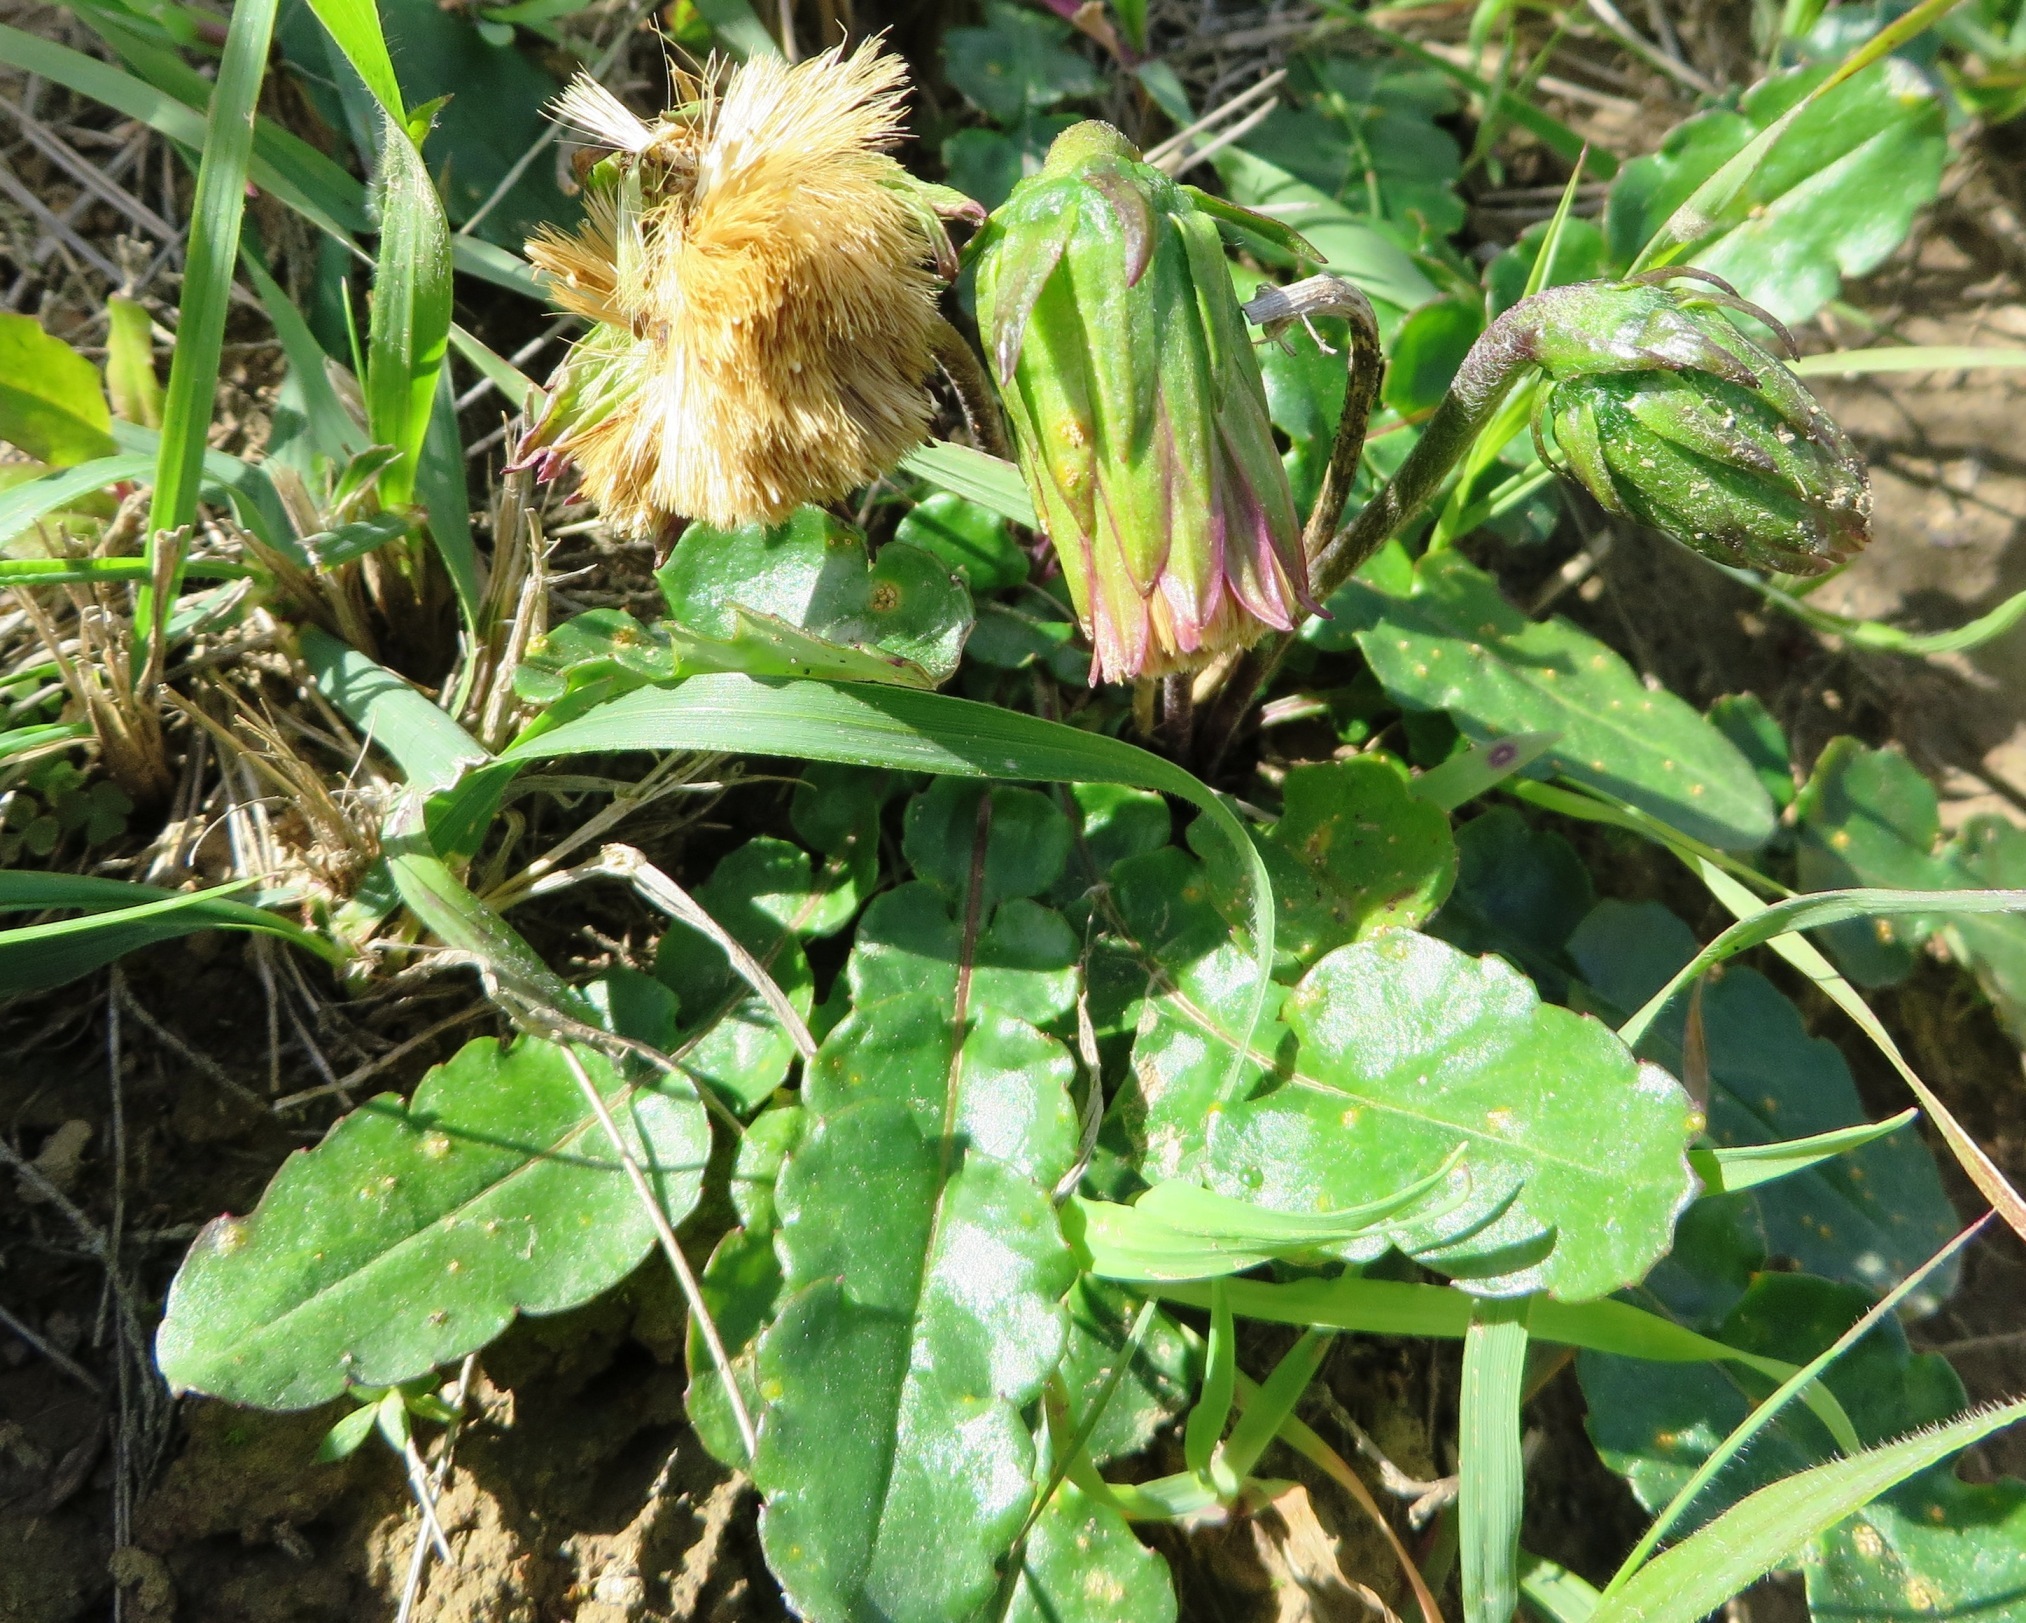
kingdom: Plantae
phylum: Tracheophyta
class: Magnoliopsida
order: Asterales
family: Asteraceae
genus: Perdicium
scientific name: Perdicium capense
